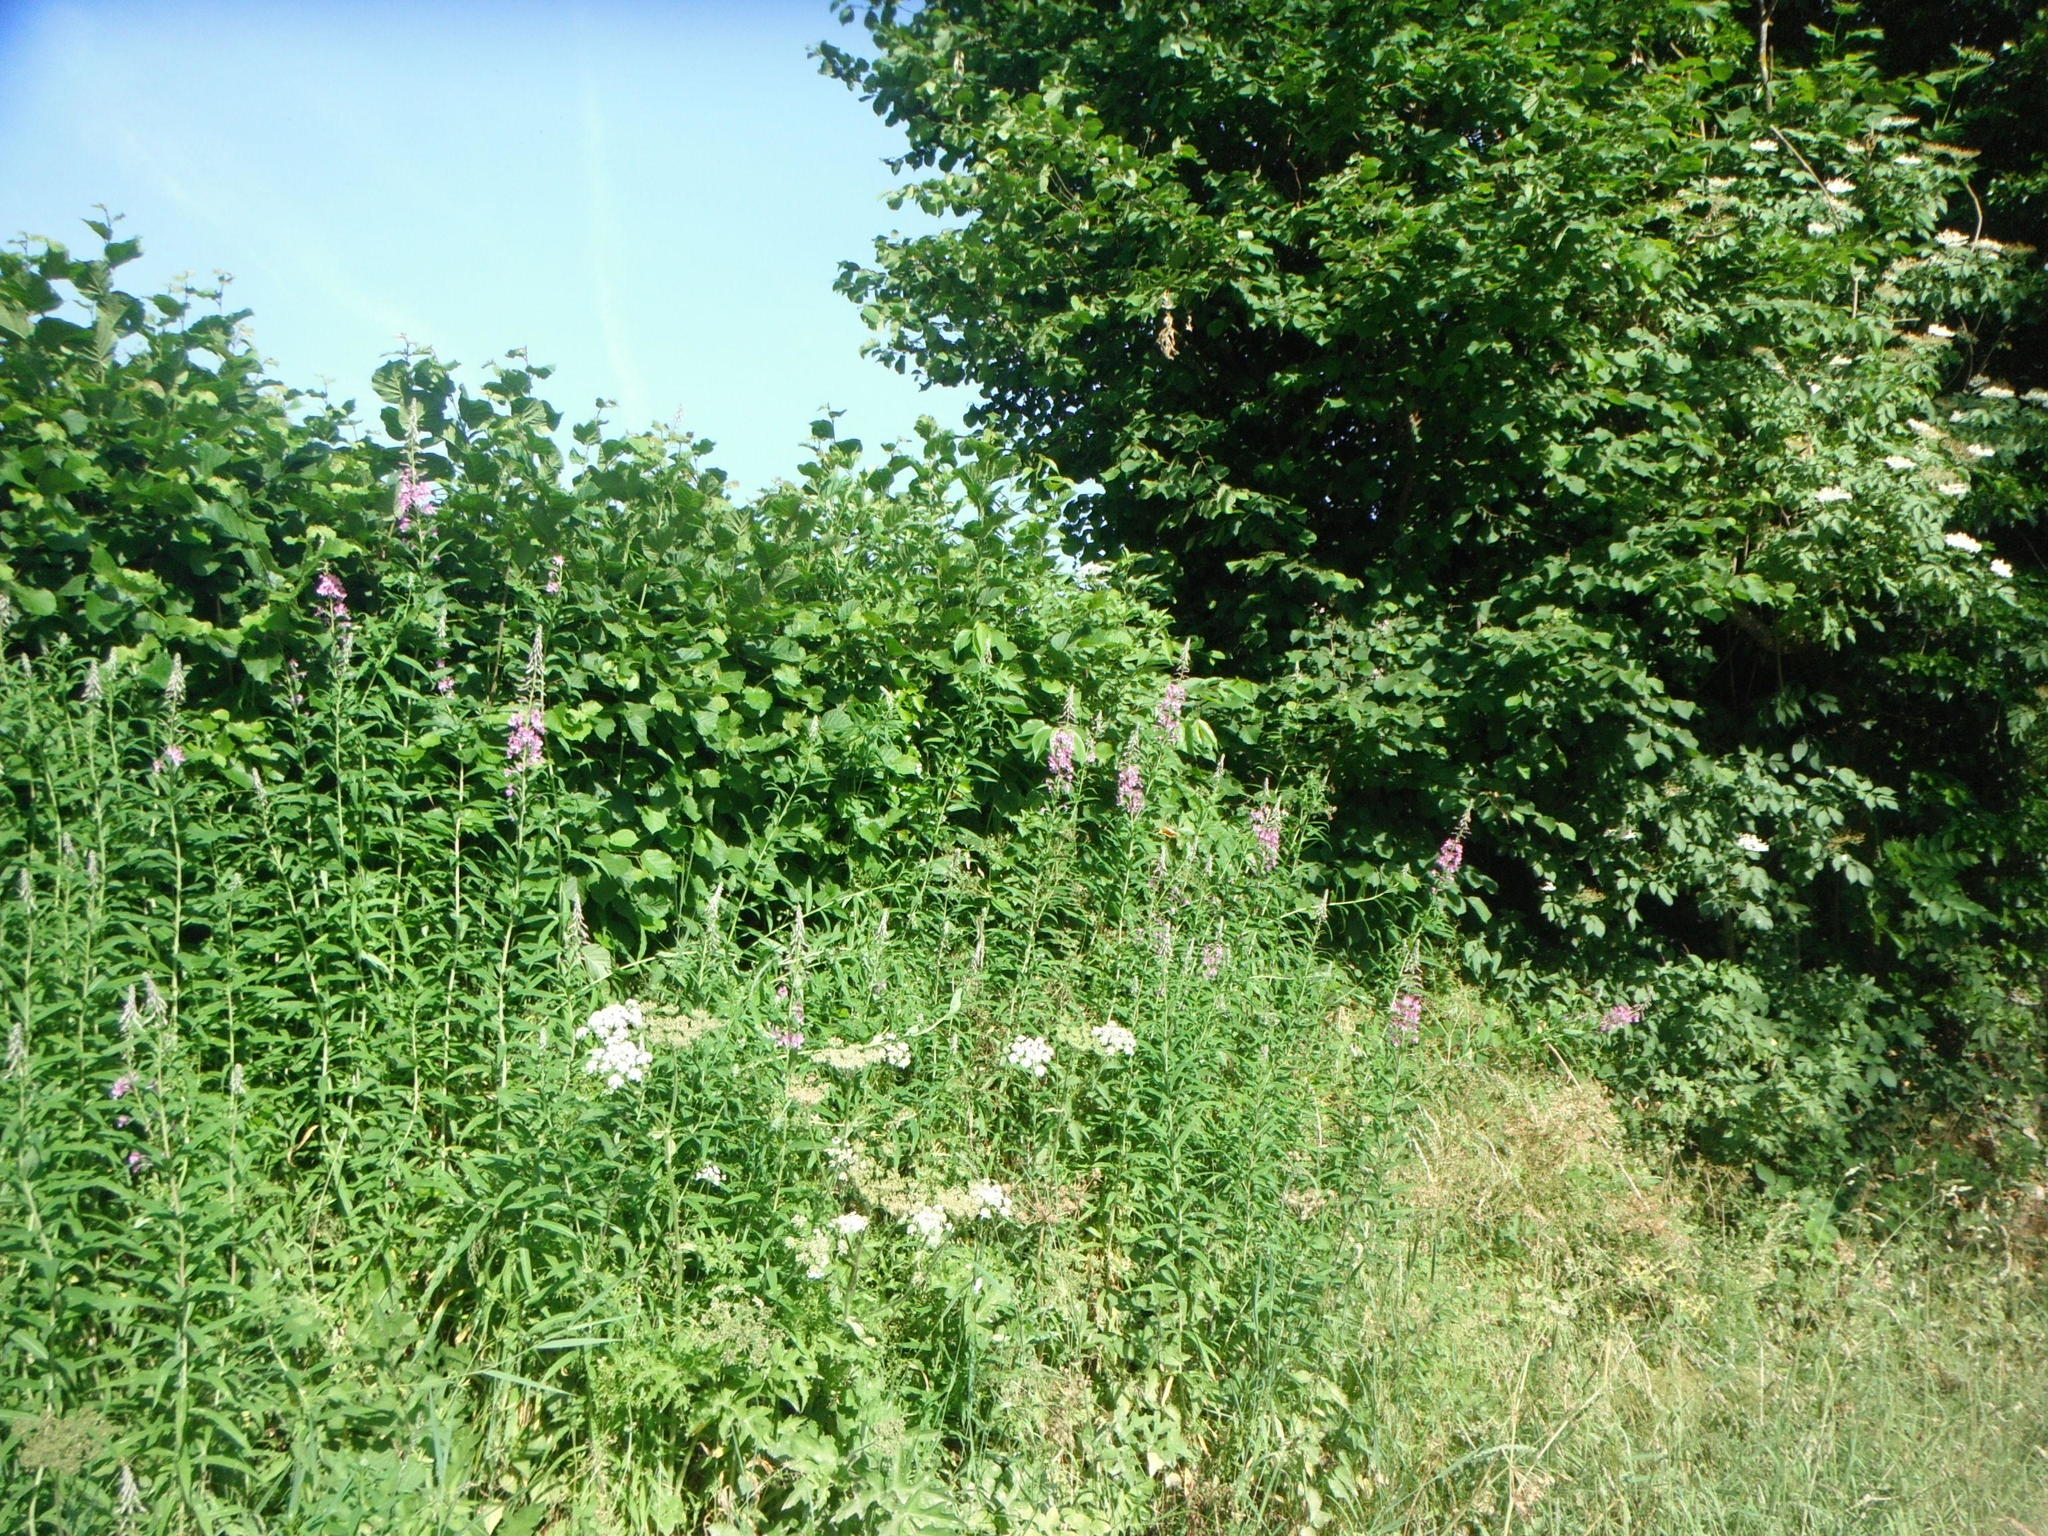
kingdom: Plantae
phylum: Tracheophyta
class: Magnoliopsida
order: Myrtales
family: Onagraceae
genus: Chamaenerion
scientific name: Chamaenerion angustifolium
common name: Fireweed
